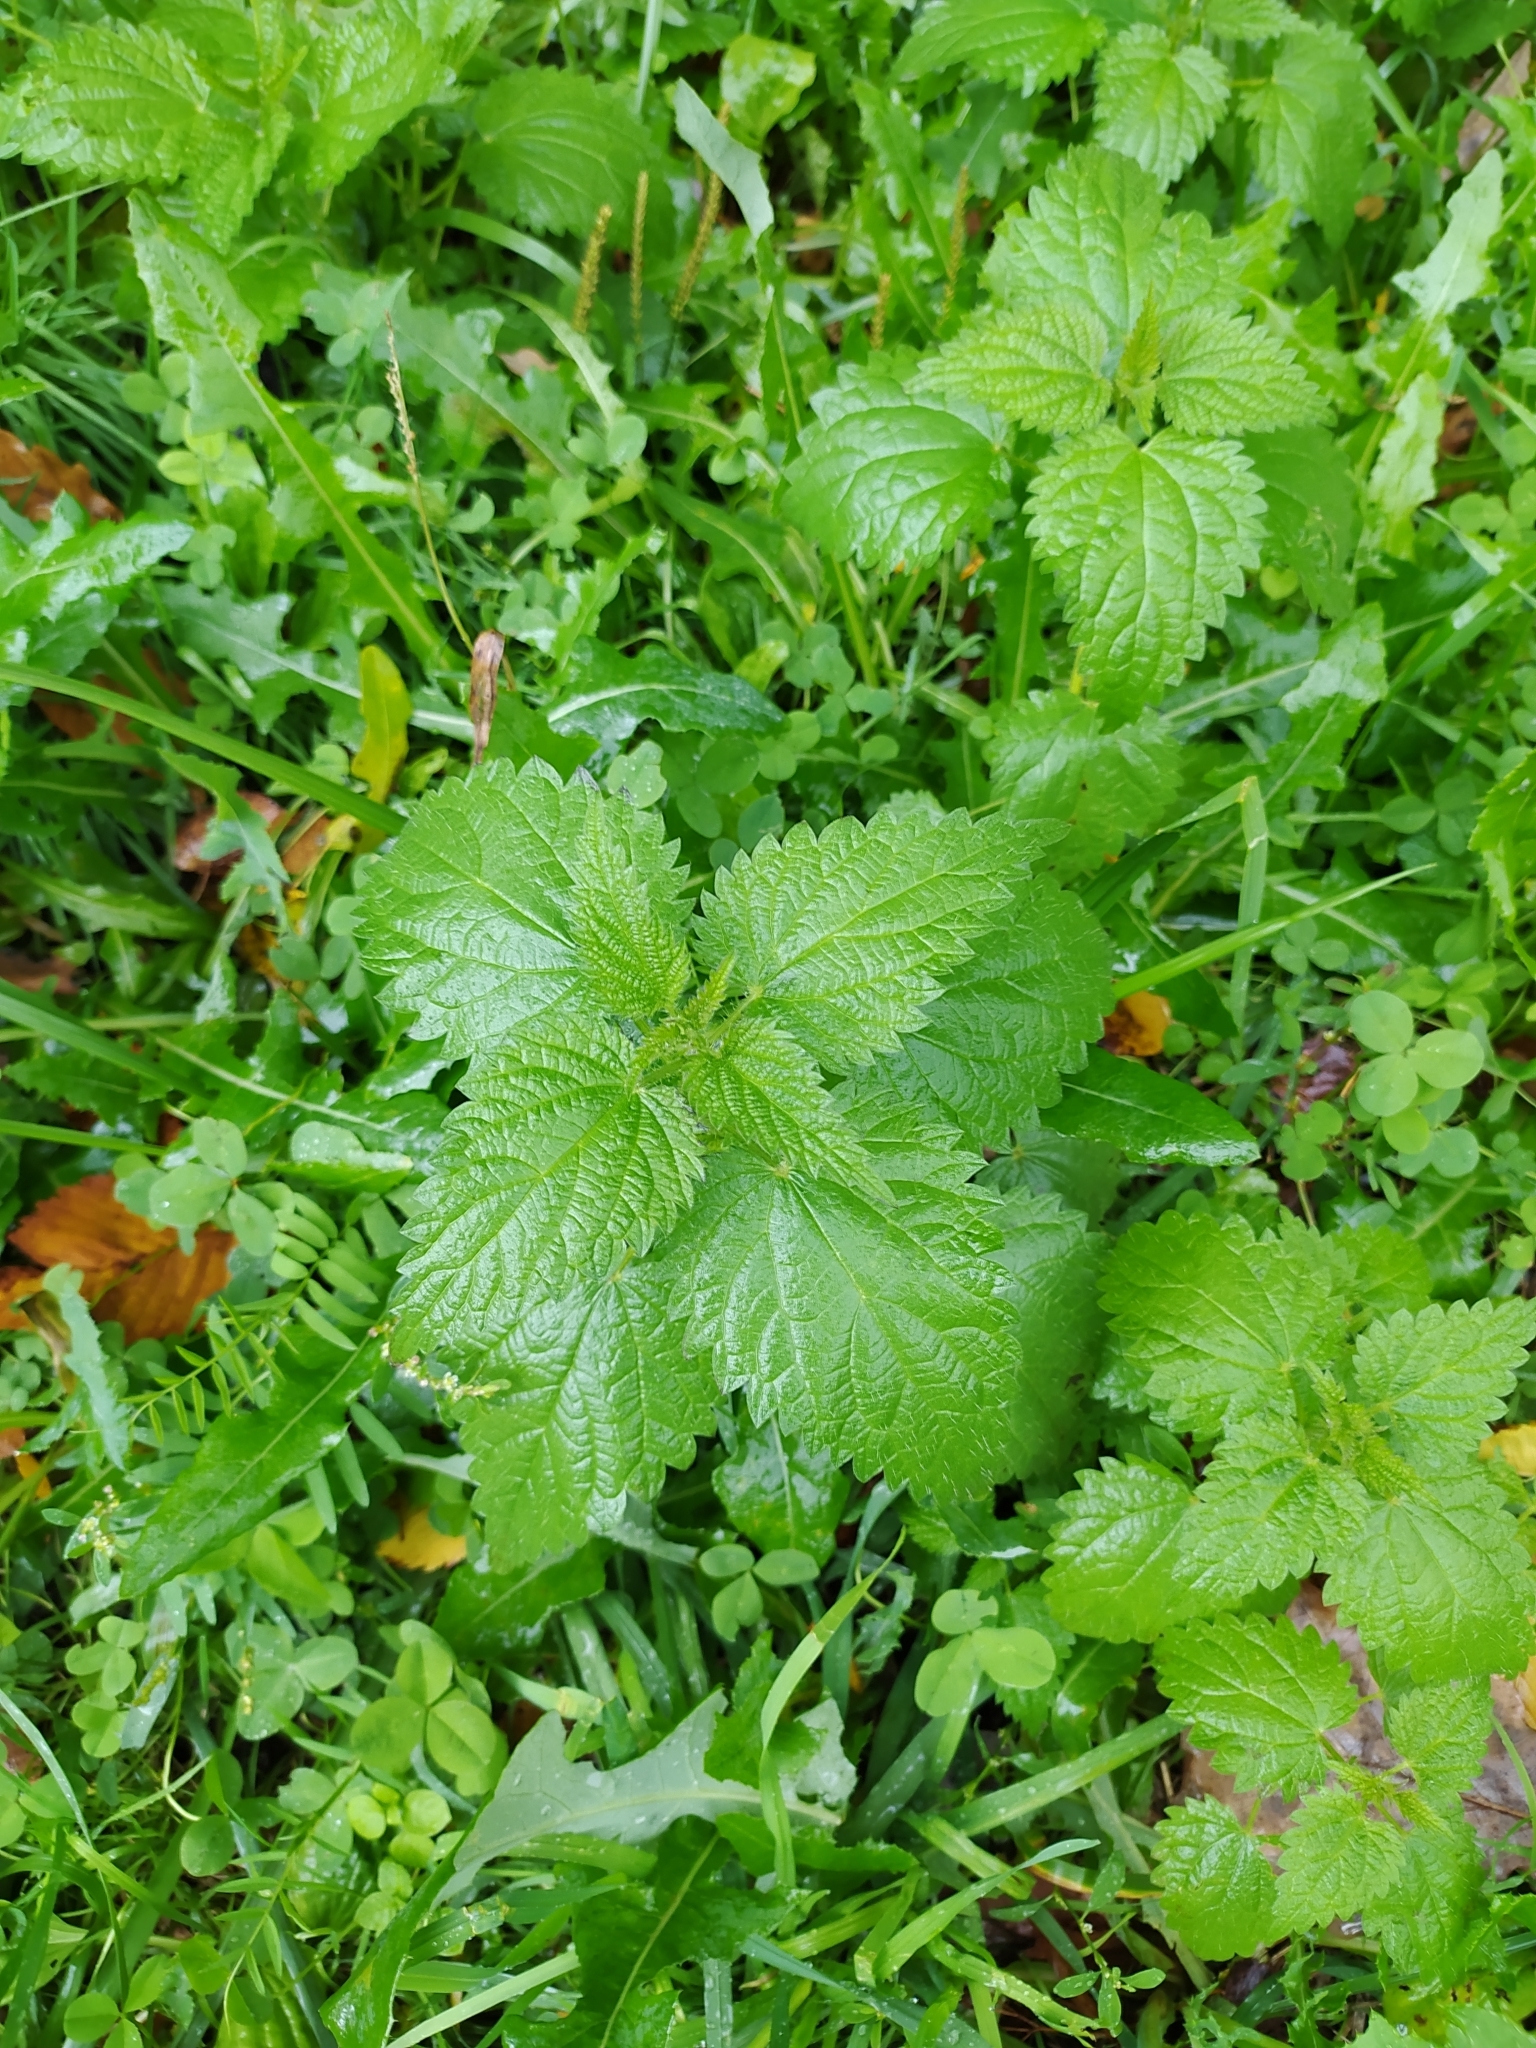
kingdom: Plantae
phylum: Tracheophyta
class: Magnoliopsida
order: Rosales
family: Urticaceae
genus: Urtica
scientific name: Urtica dioica
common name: Common nettle
